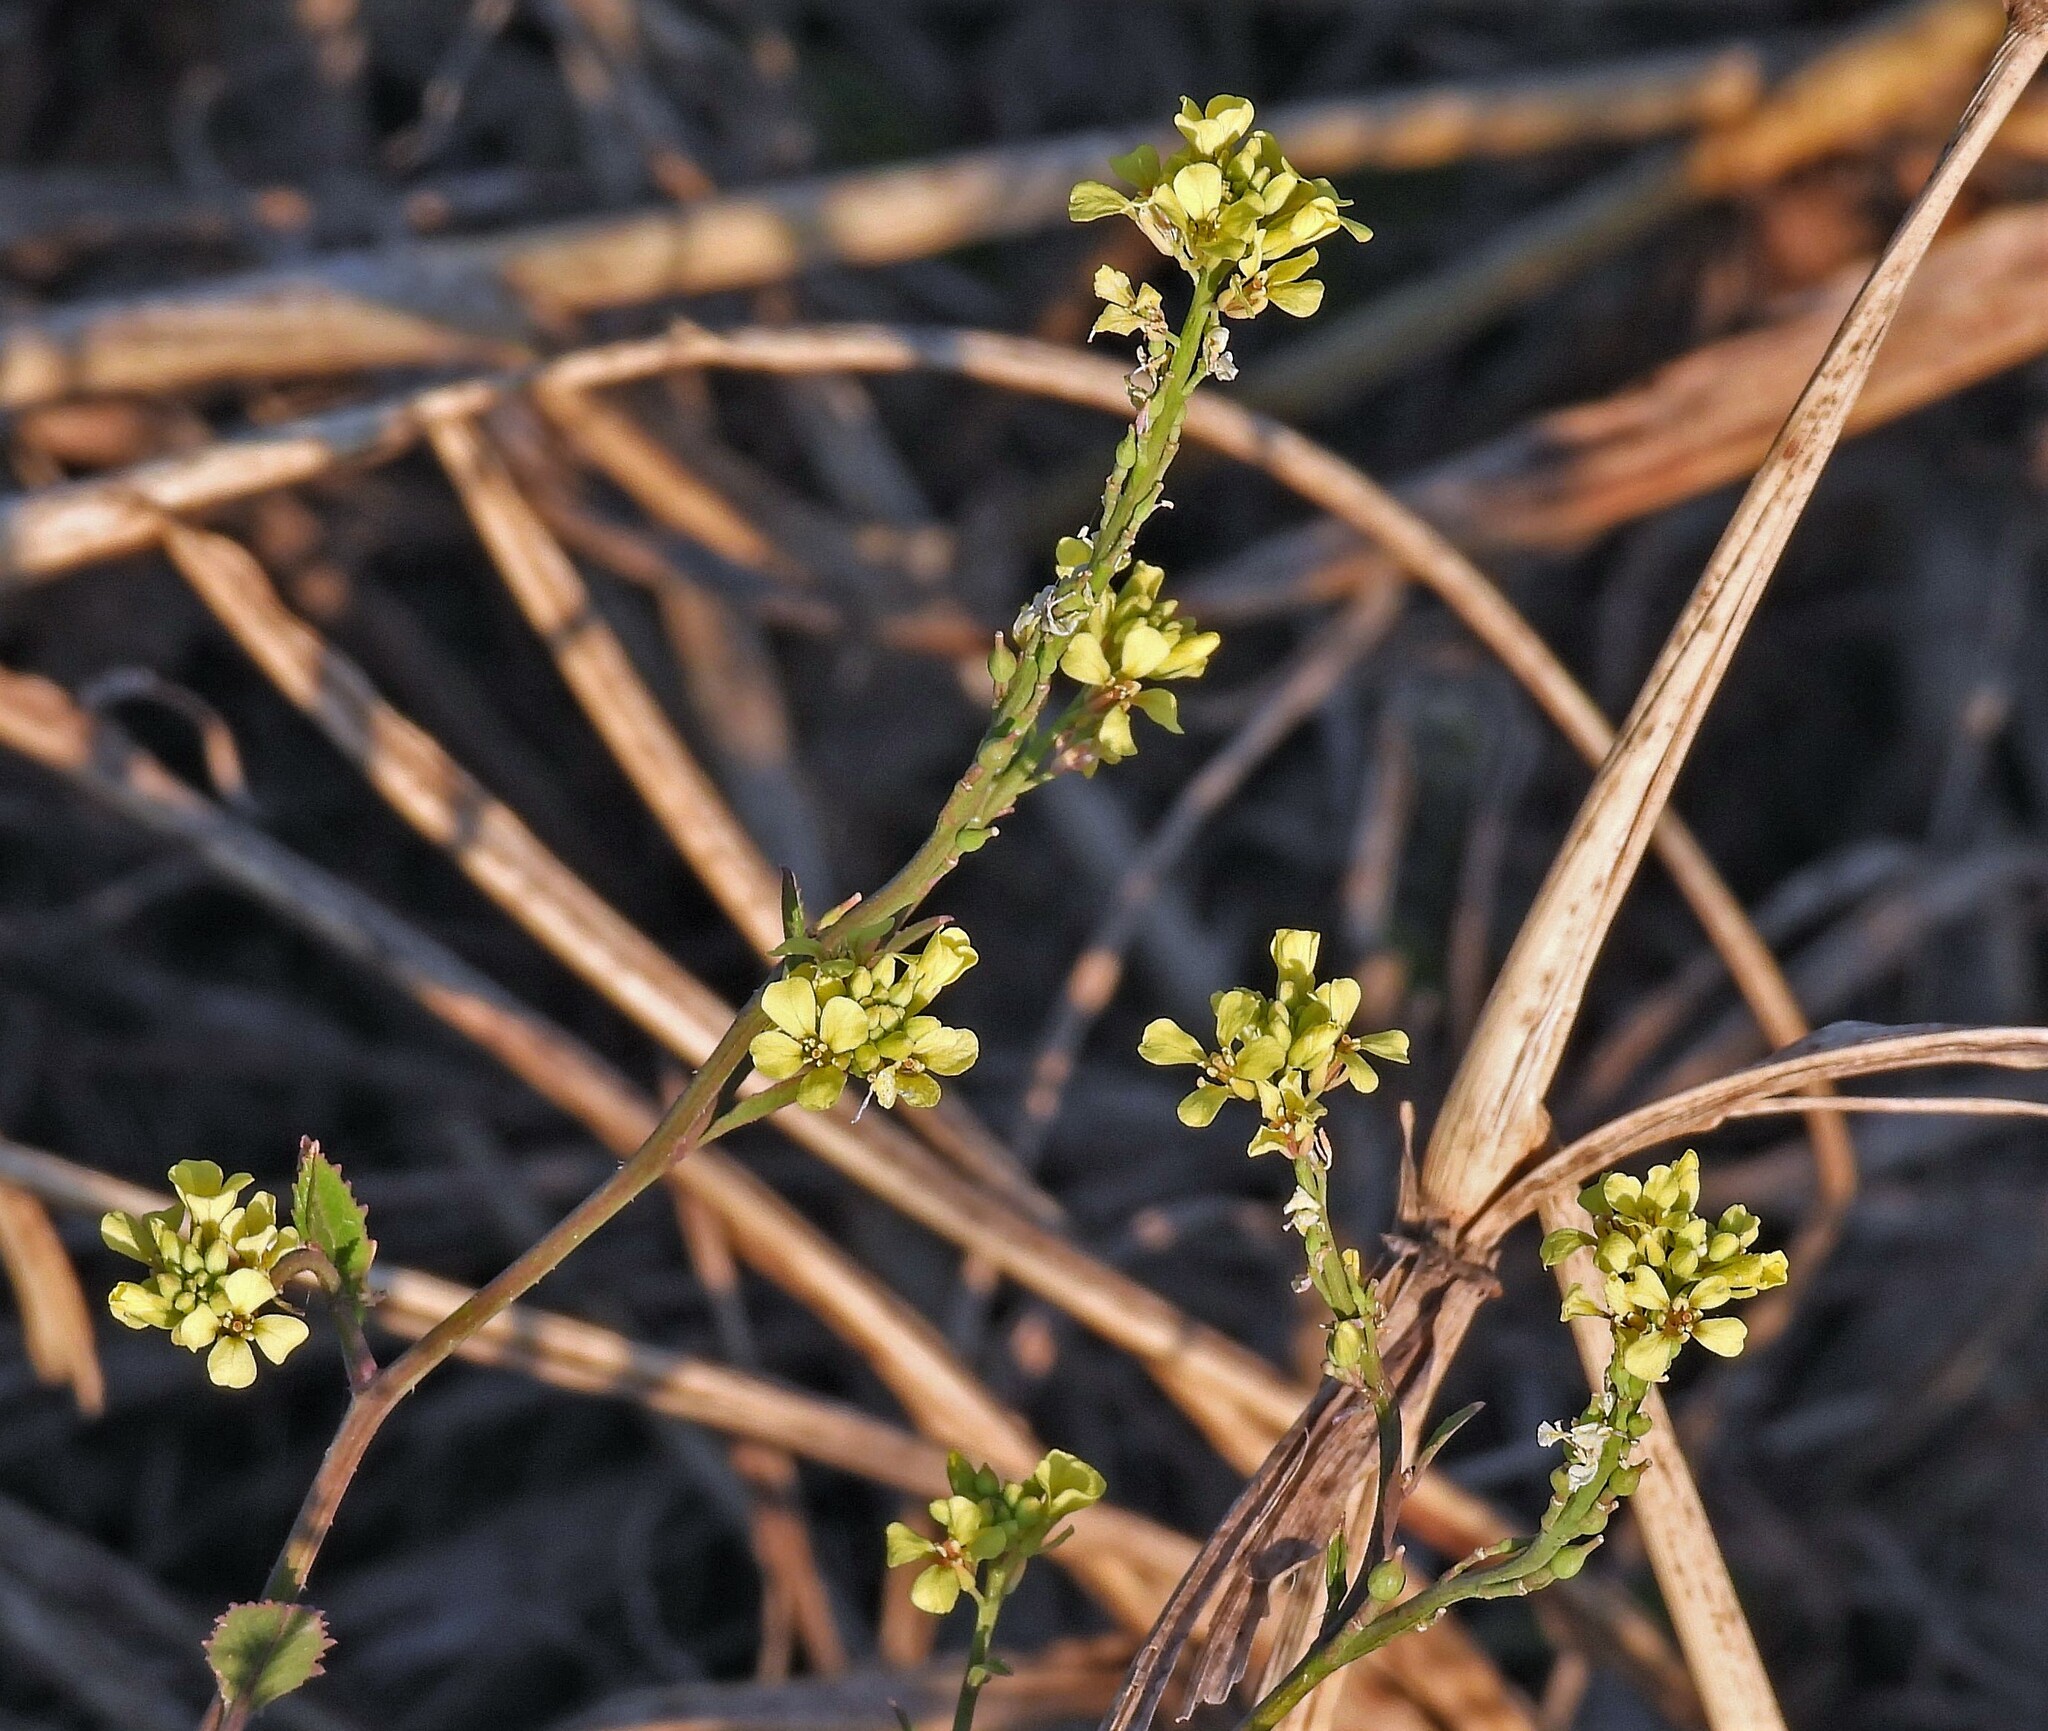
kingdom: Plantae
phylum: Tracheophyta
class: Magnoliopsida
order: Brassicales
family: Brassicaceae
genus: Rapistrum
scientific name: Rapistrum rugosum
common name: Annual bastardcabbage
